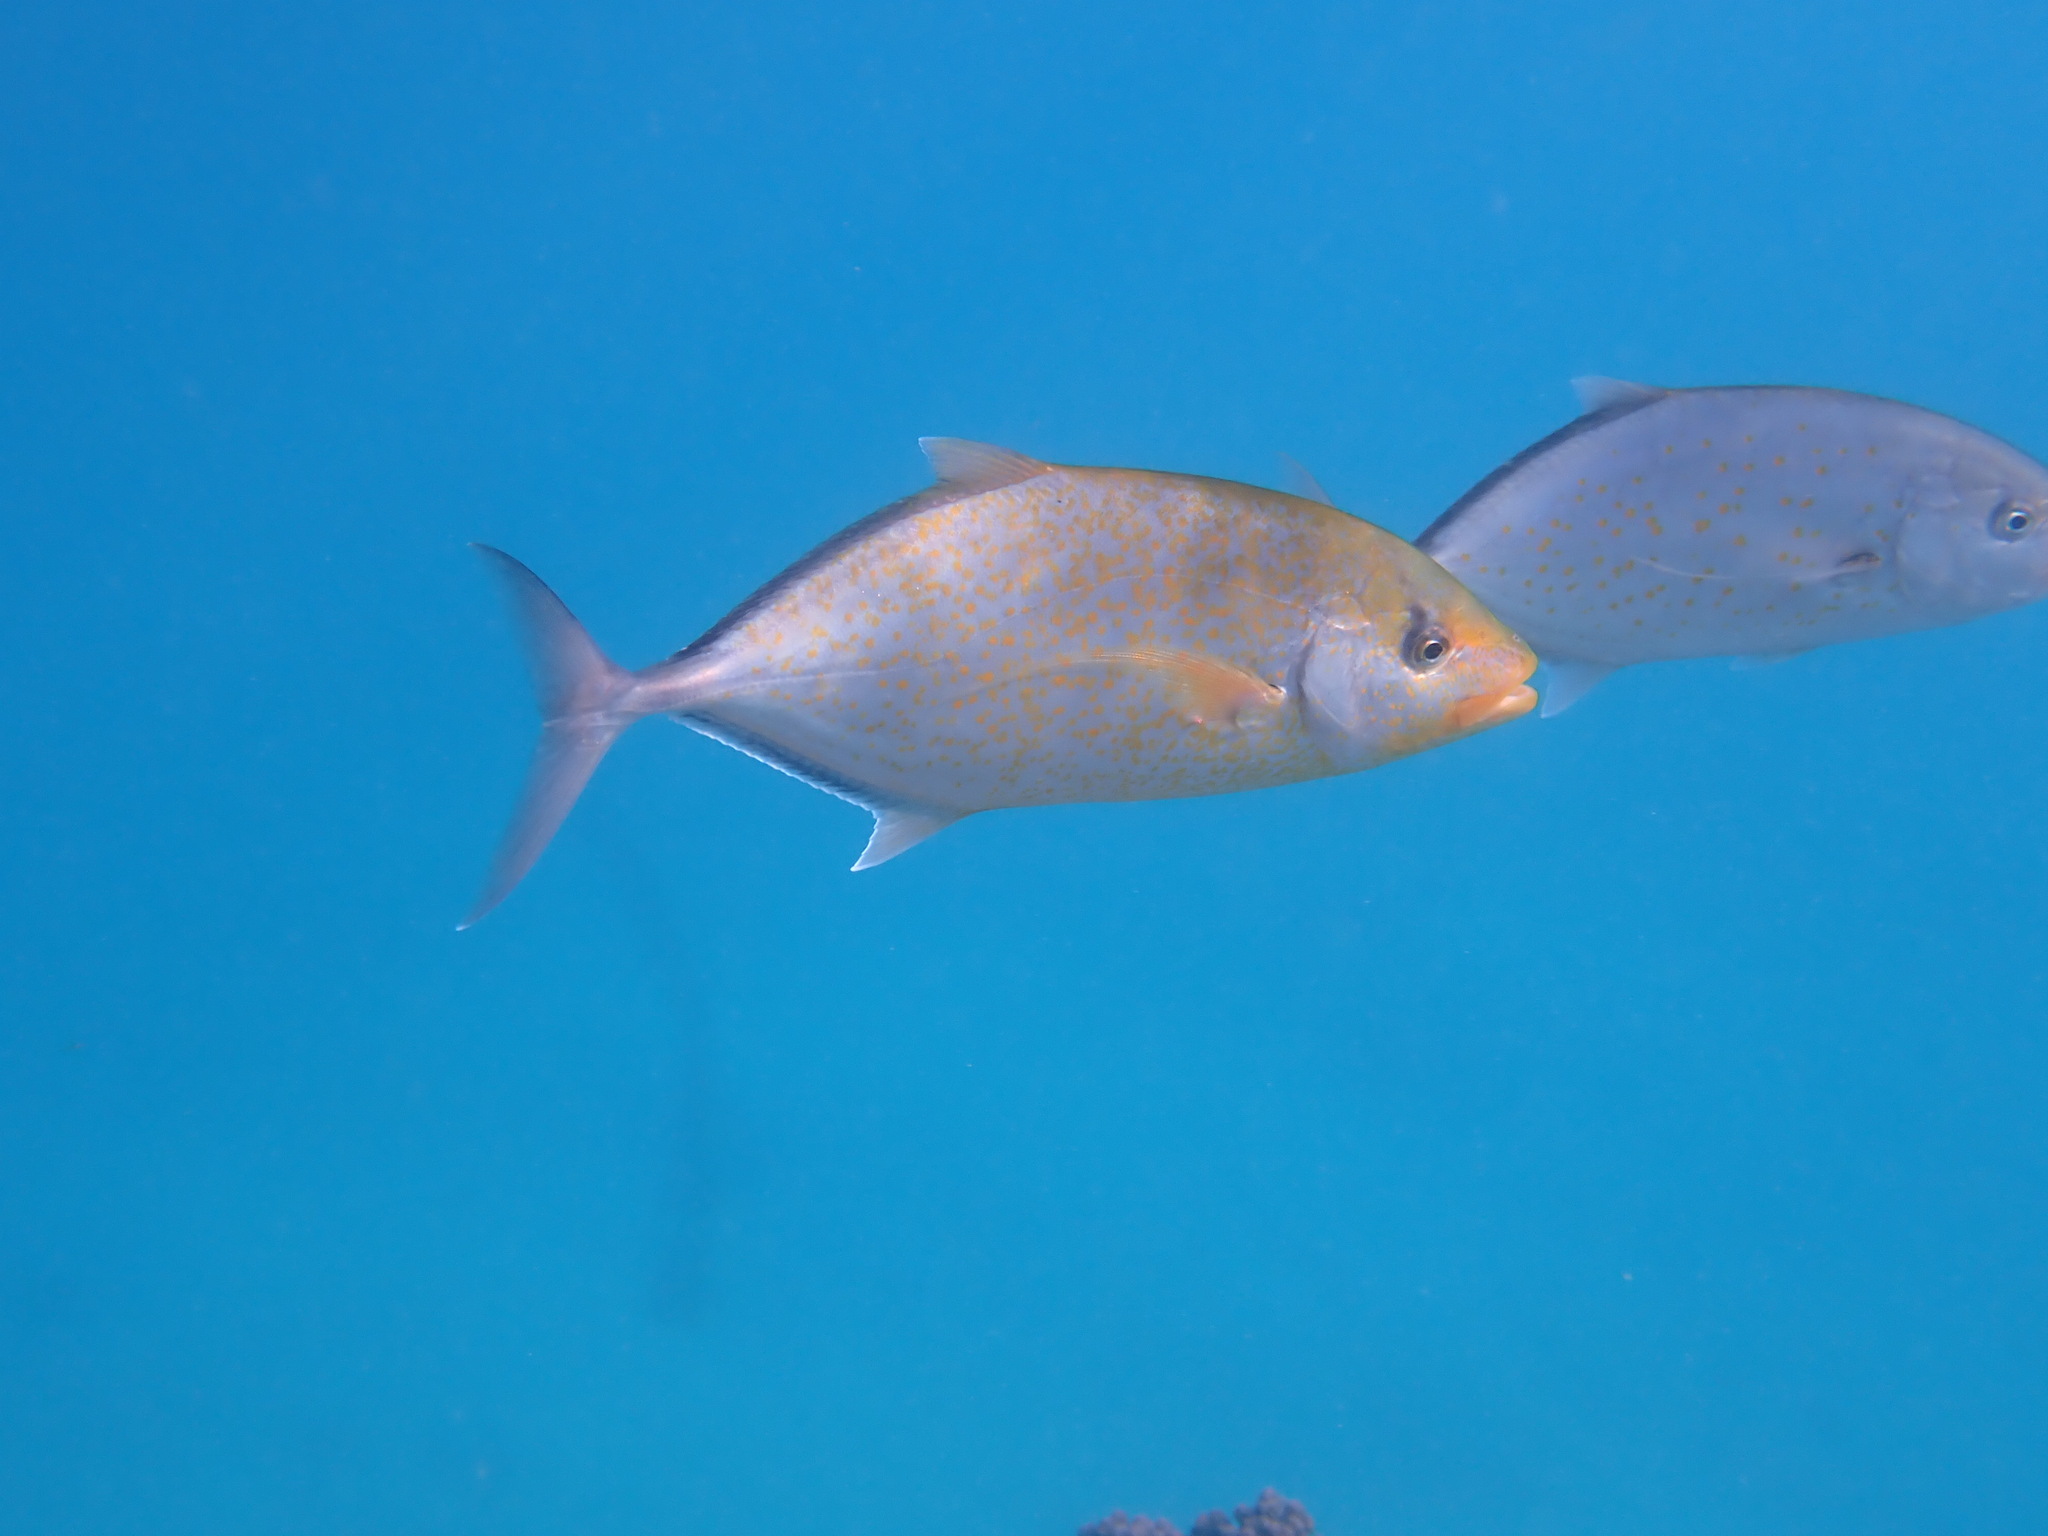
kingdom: Animalia
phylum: Chordata
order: Perciformes
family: Carangidae
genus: Flavocaranx
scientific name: Flavocaranx bajad
